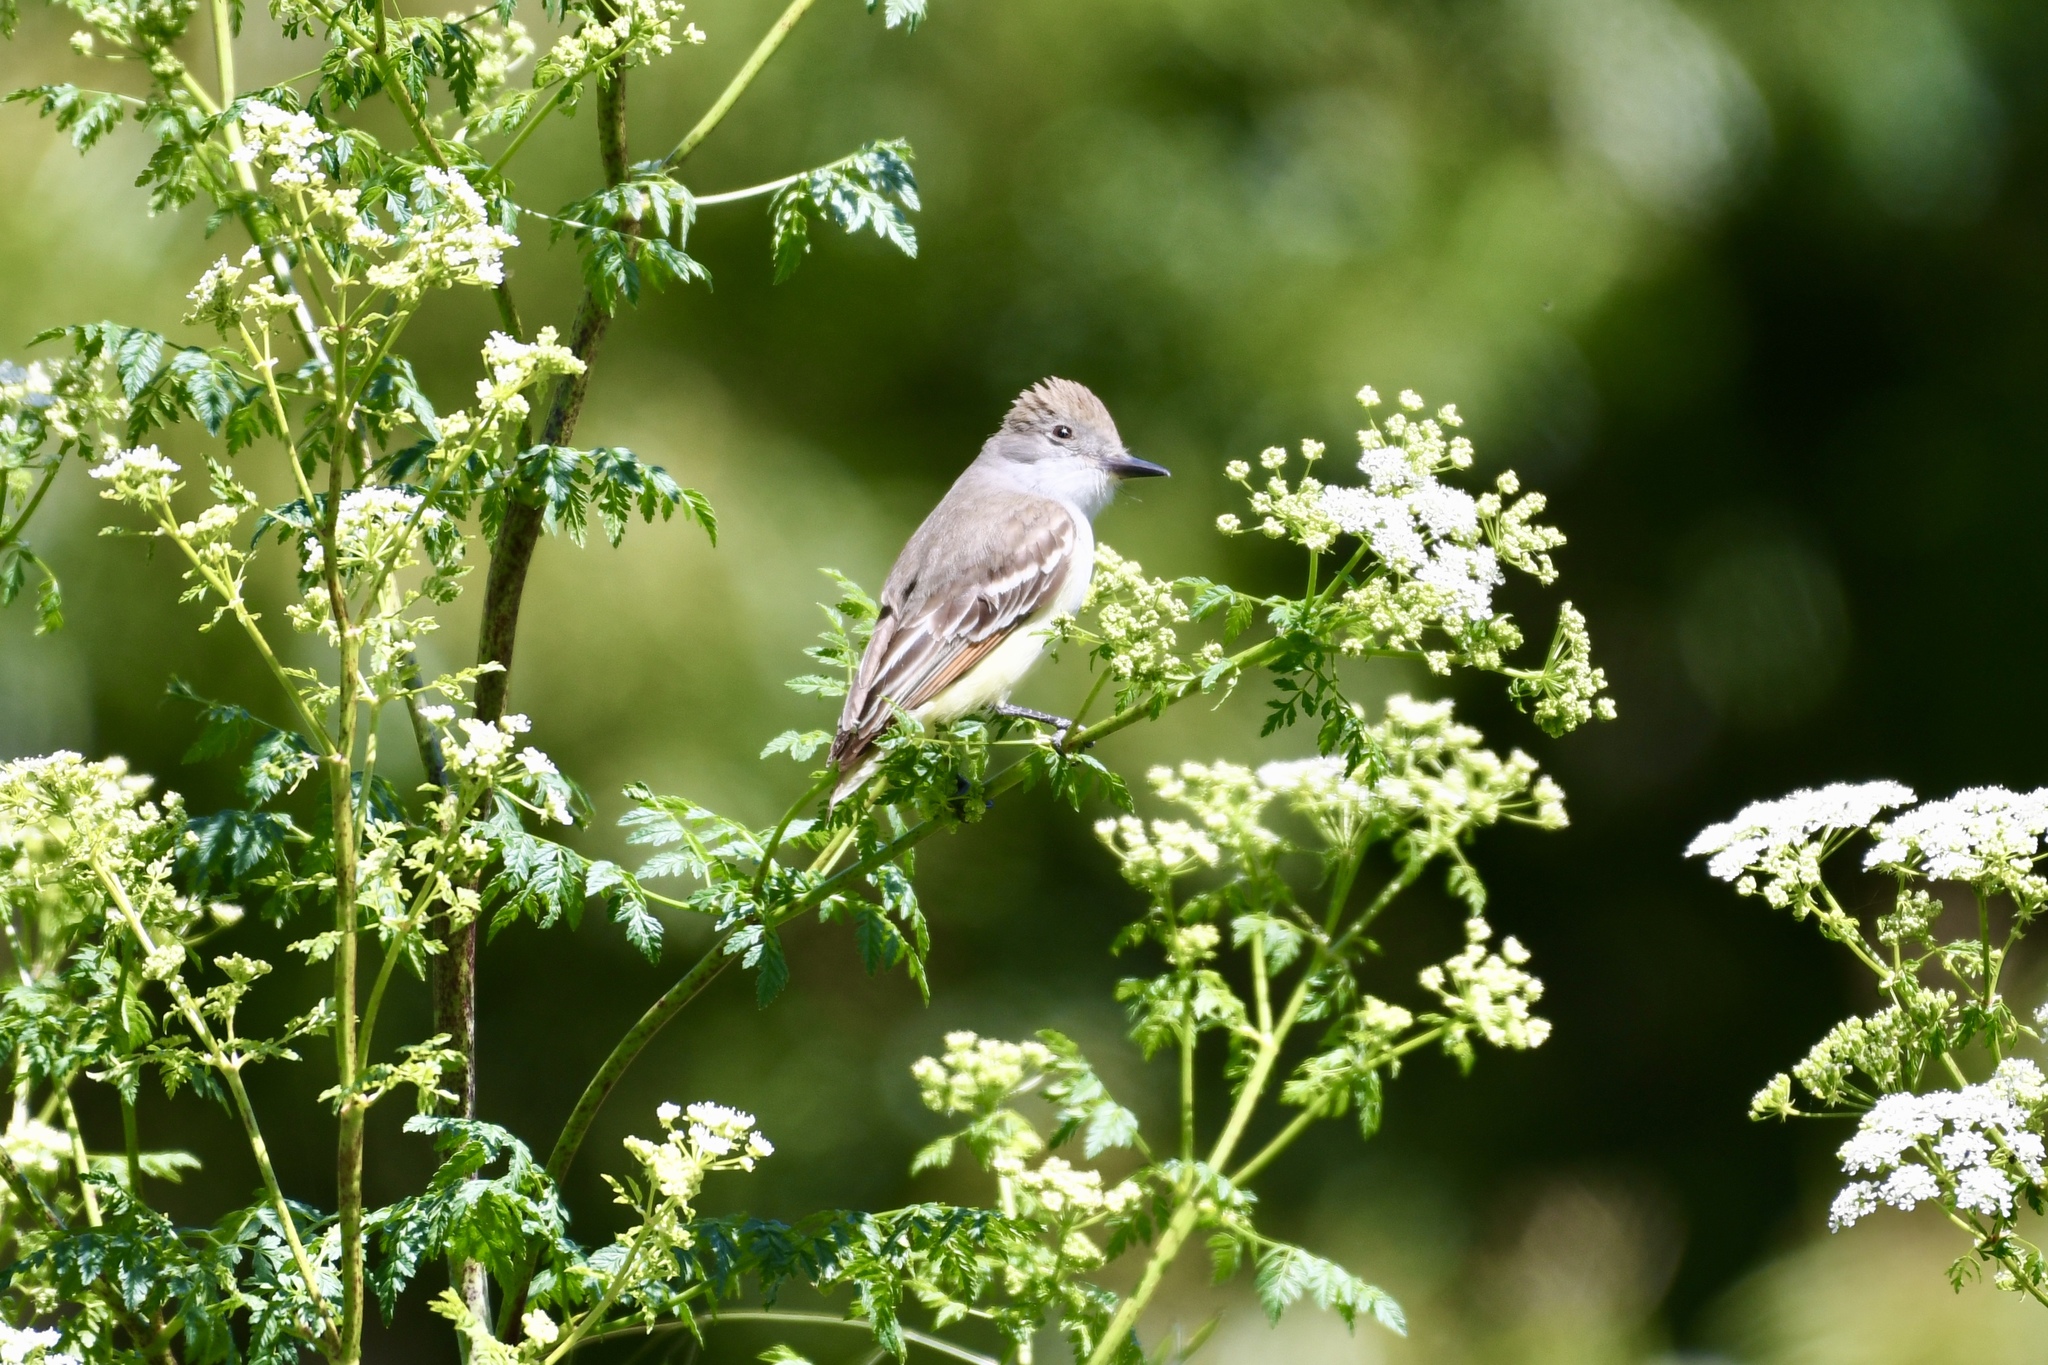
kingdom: Animalia
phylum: Chordata
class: Aves
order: Passeriformes
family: Tyrannidae
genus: Myiarchus
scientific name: Myiarchus cinerascens
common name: Ash-throated flycatcher
